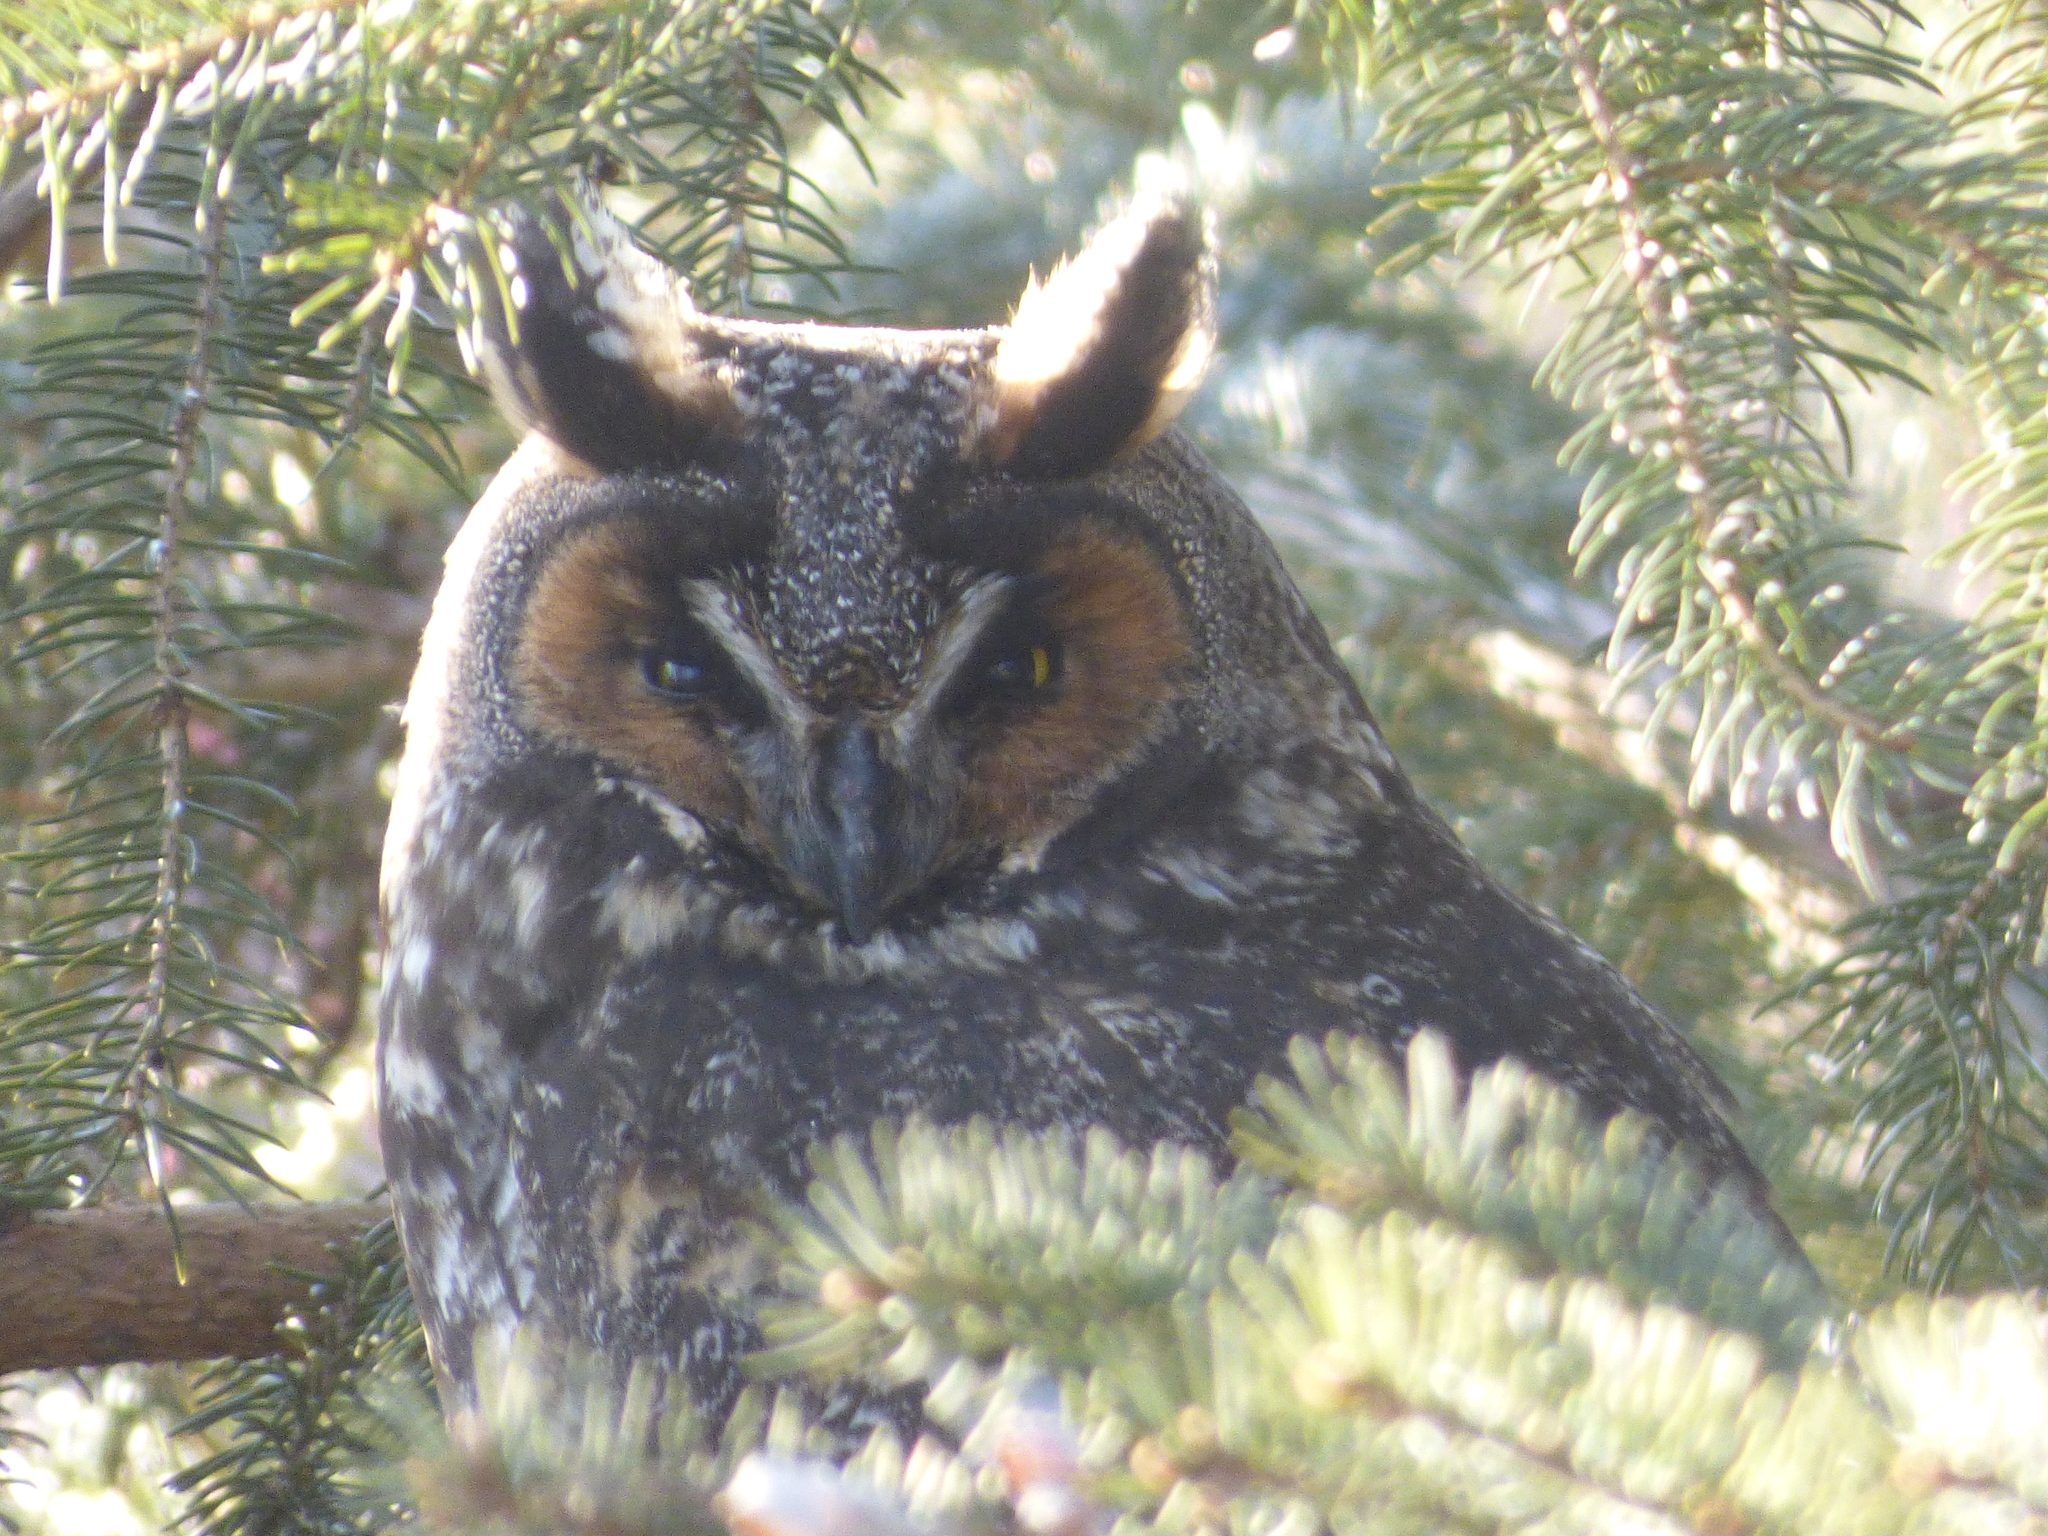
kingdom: Animalia
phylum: Chordata
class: Aves
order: Strigiformes
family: Strigidae
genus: Asio
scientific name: Asio otus
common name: Long-eared owl
